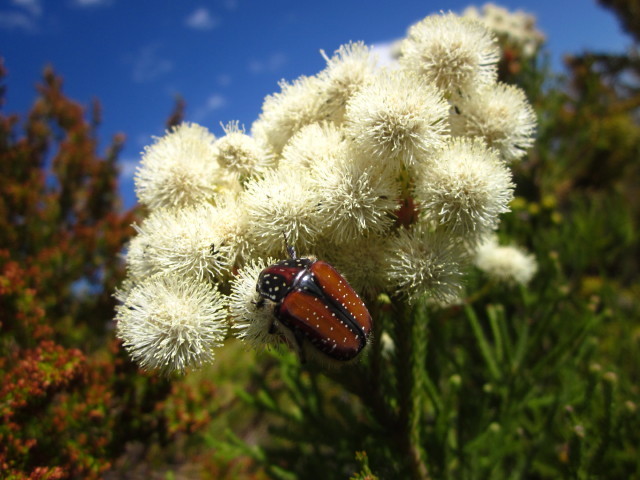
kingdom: Animalia
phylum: Arthropoda
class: Insecta
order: Coleoptera
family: Scarabaeidae
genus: Trichostetha
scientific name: Trichostetha capensis
